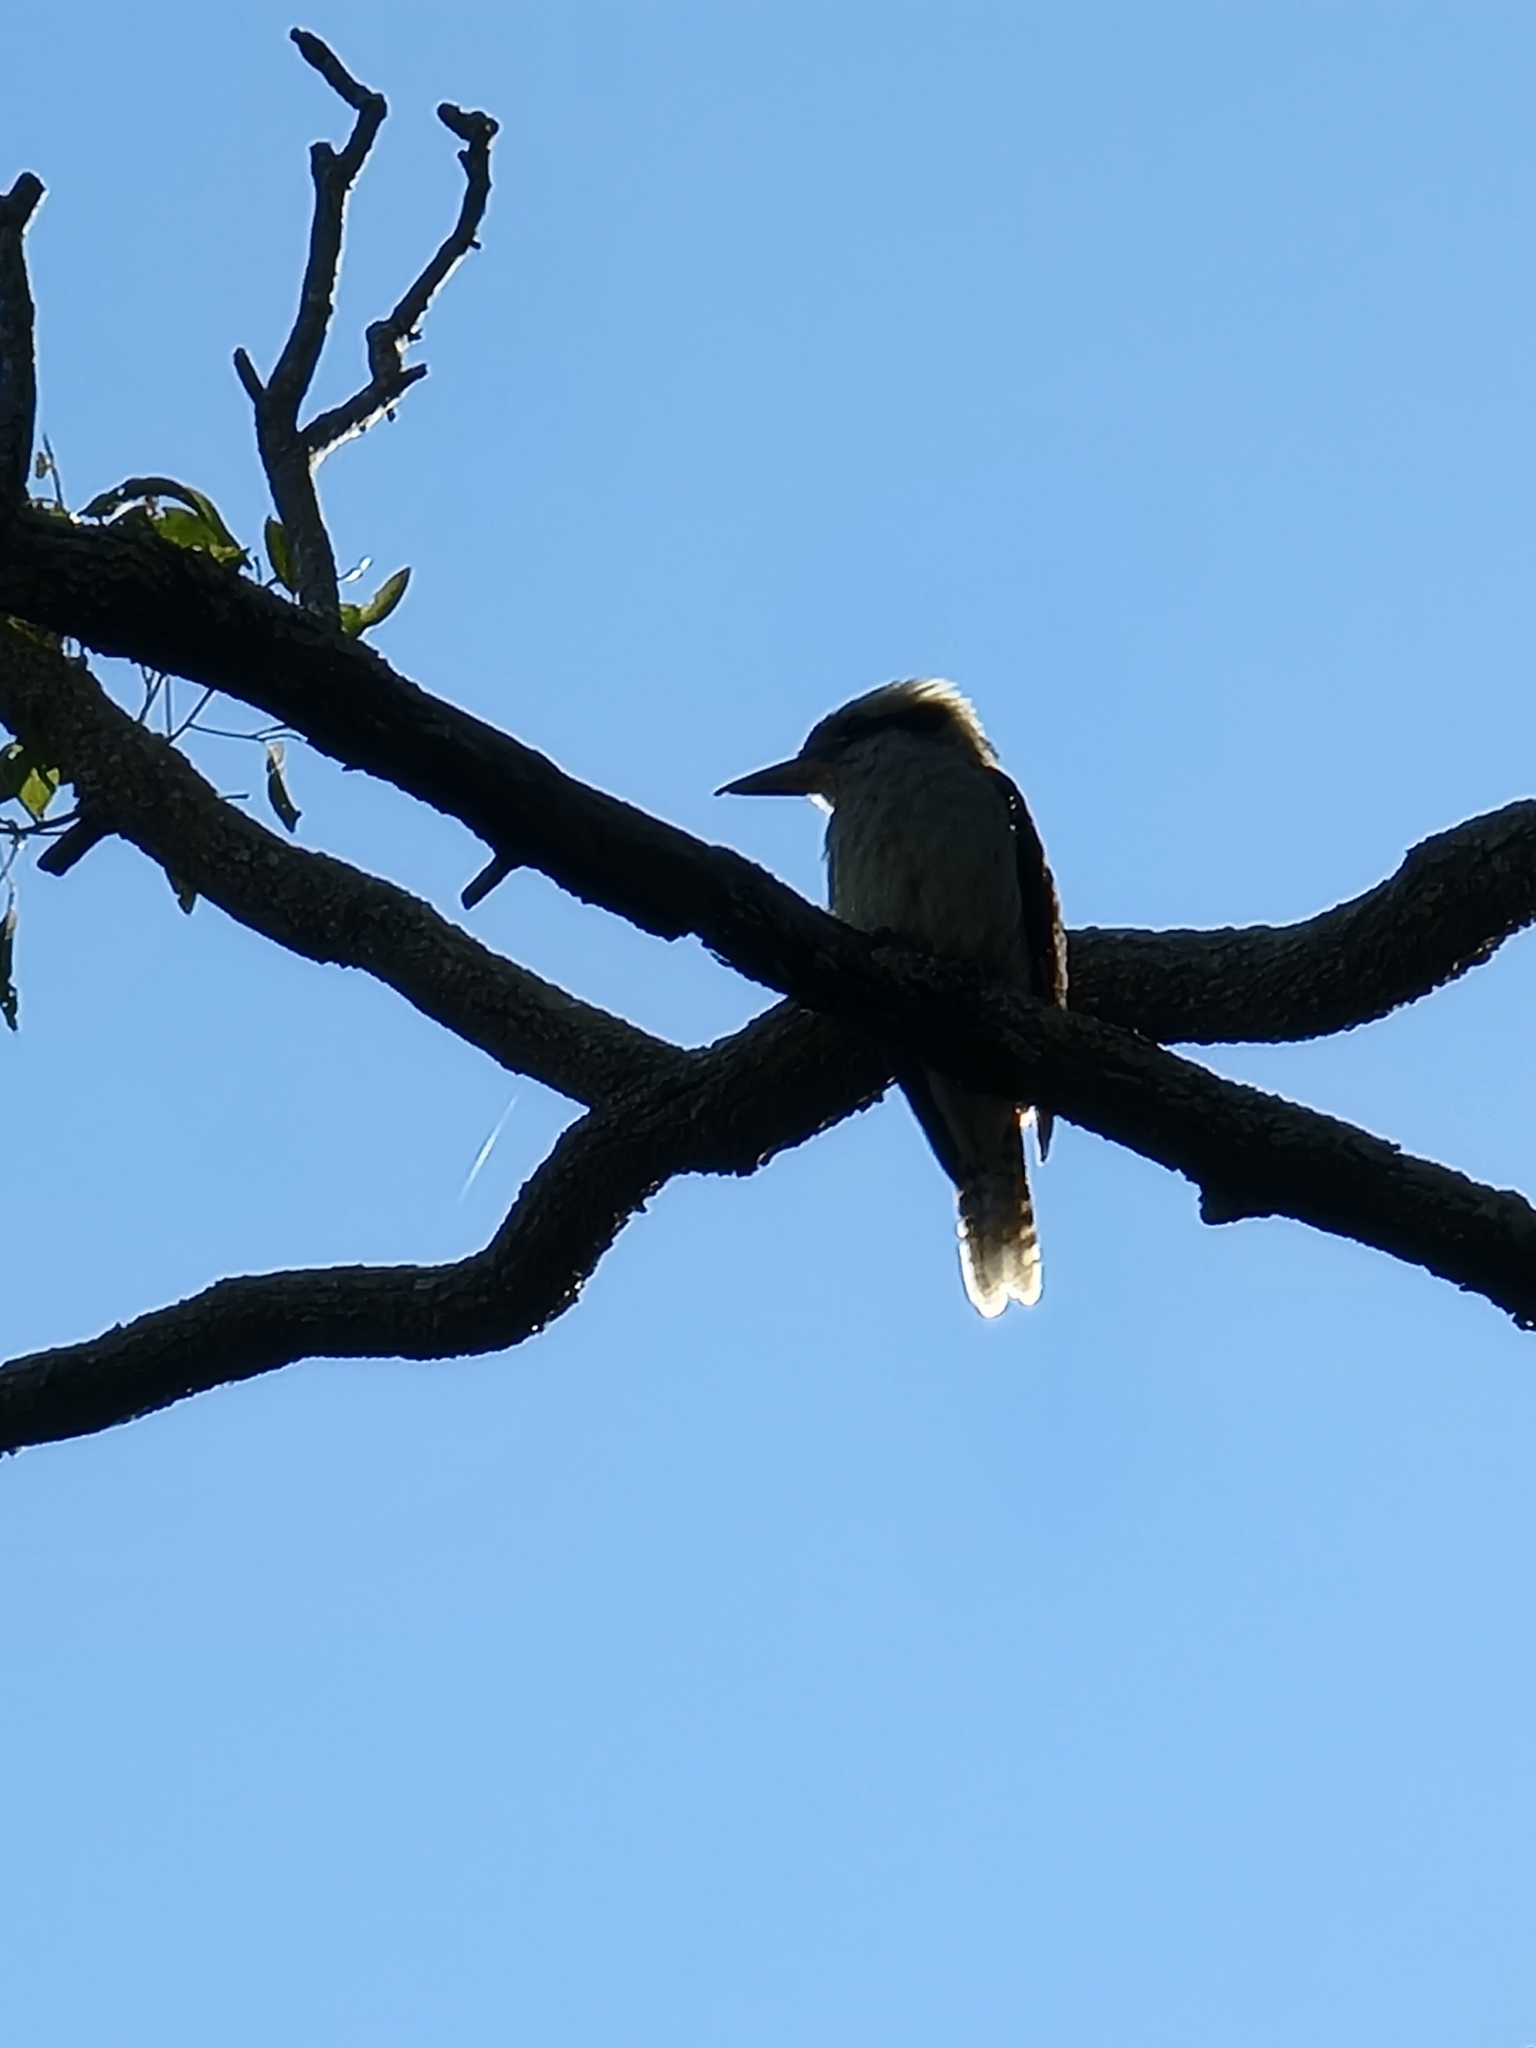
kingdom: Animalia
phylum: Chordata
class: Aves
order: Coraciiformes
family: Alcedinidae
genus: Dacelo
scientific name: Dacelo novaeguineae
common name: Laughing kookaburra
